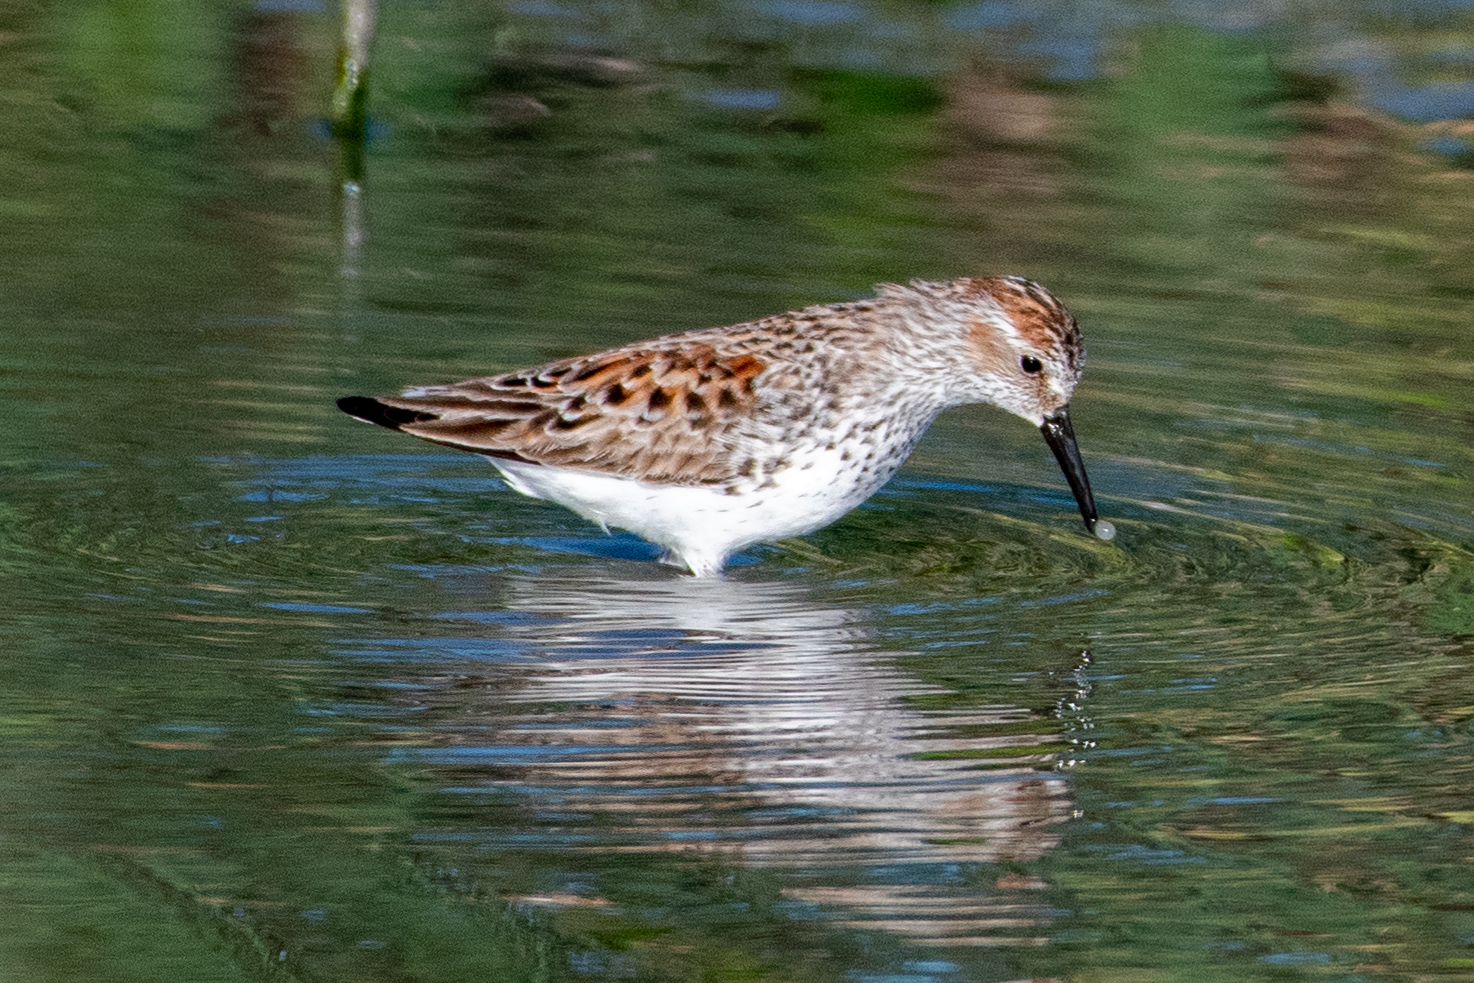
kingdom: Animalia
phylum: Chordata
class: Aves
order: Charadriiformes
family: Scolopacidae
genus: Calidris
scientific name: Calidris mauri
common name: Western sandpiper
